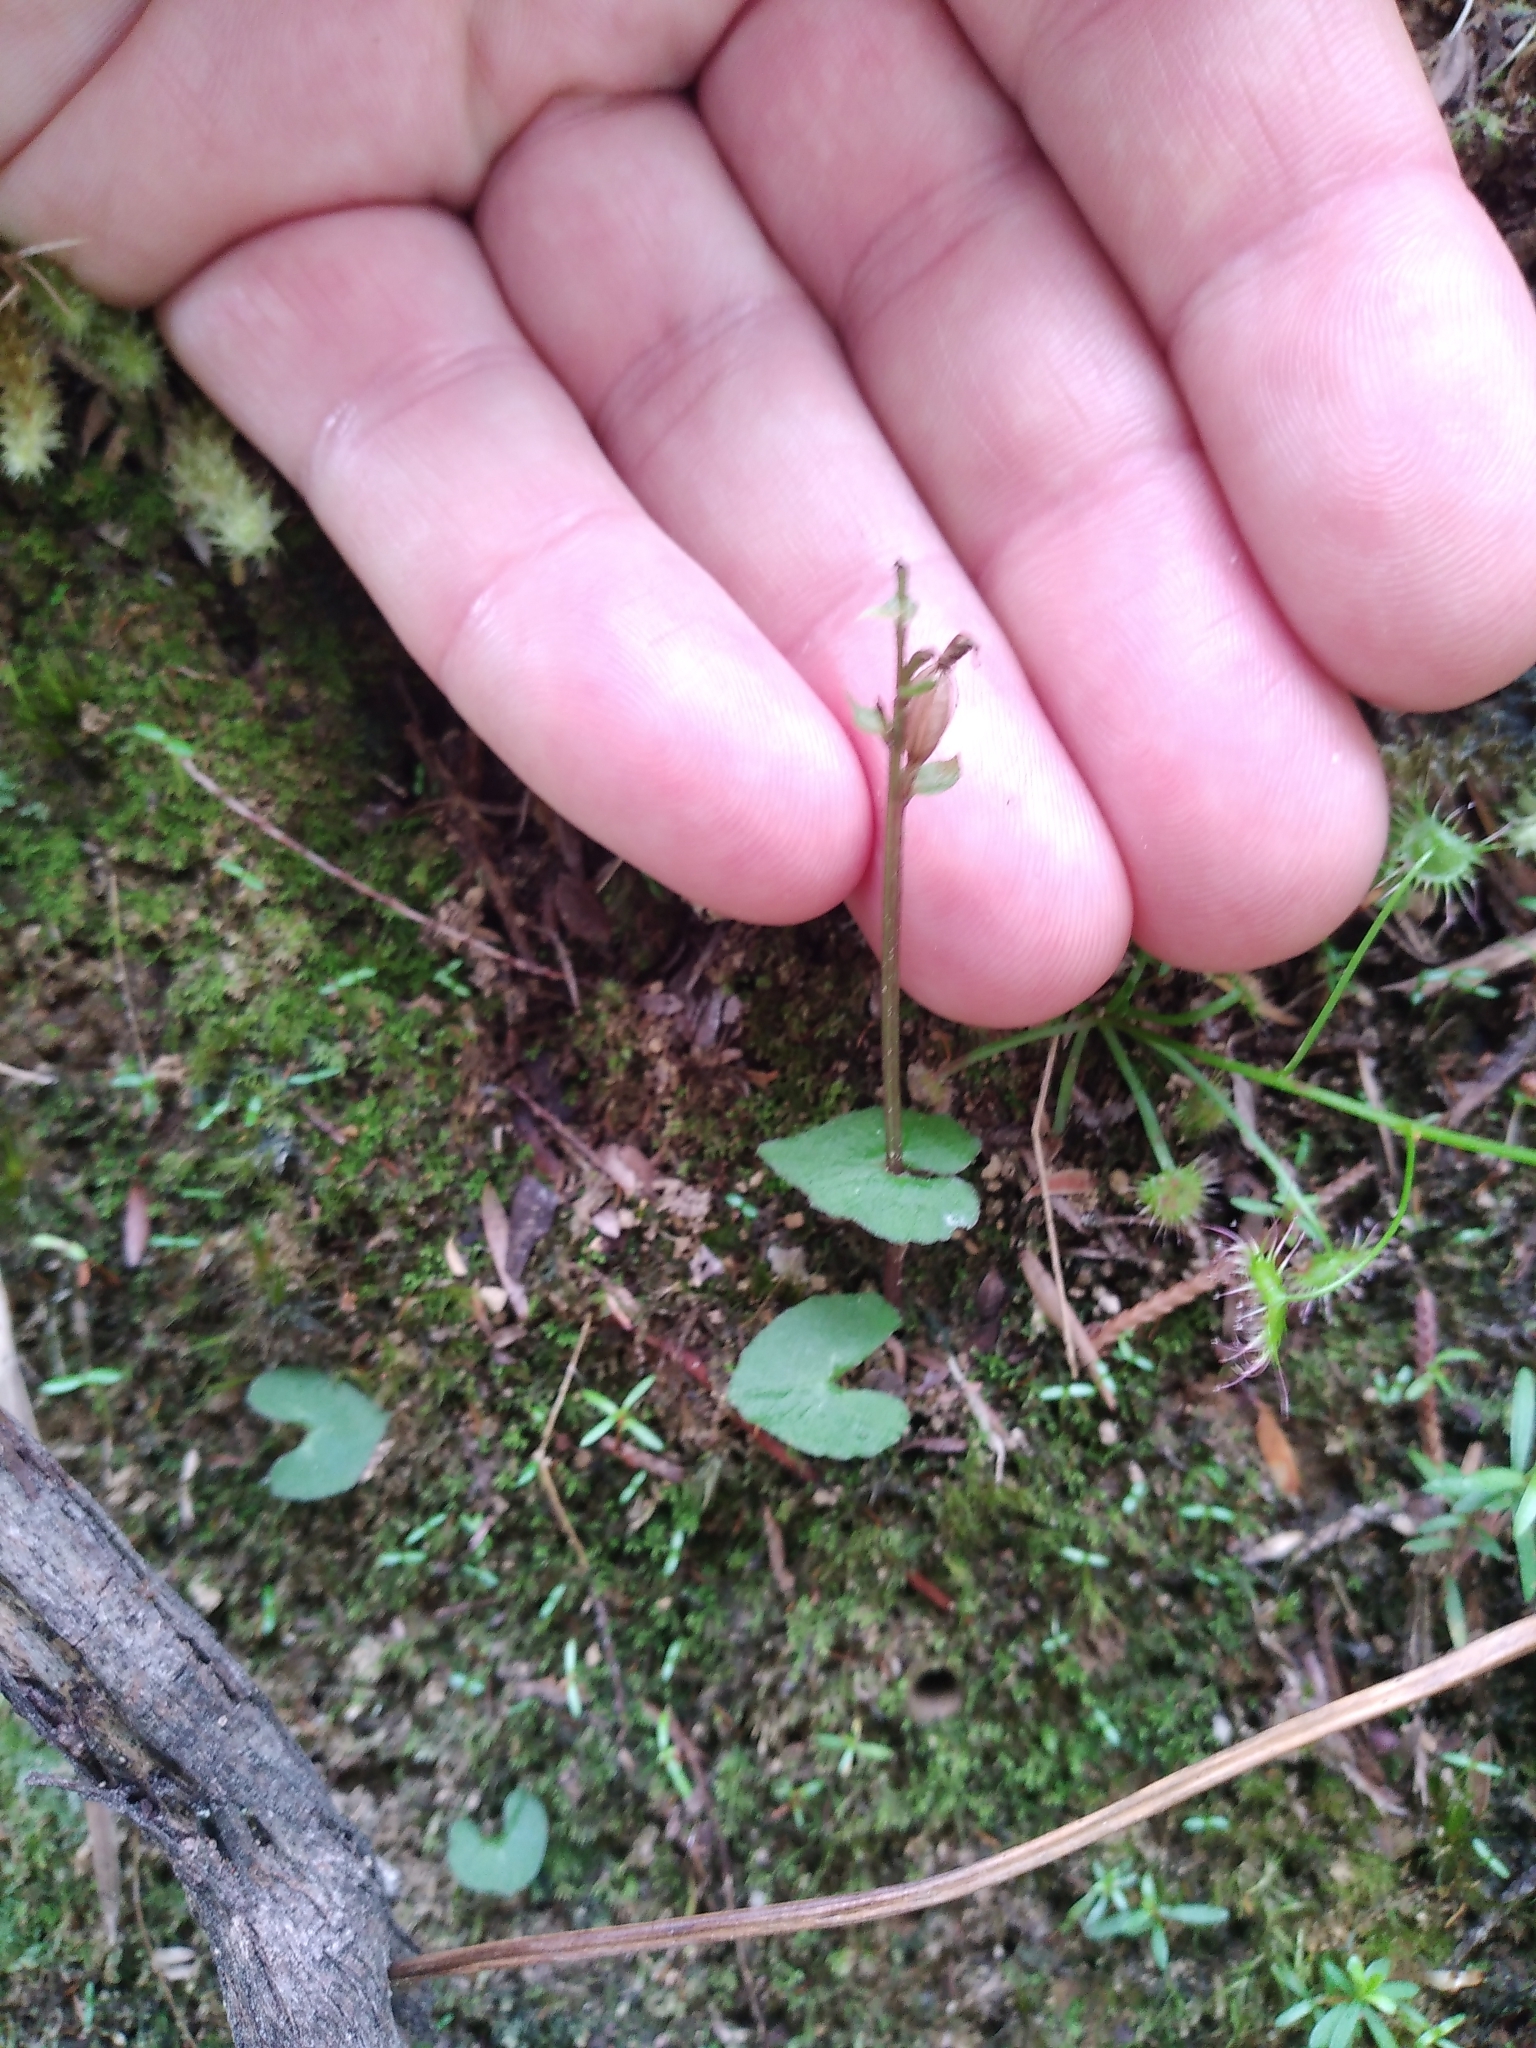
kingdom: Plantae
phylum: Tracheophyta
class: Liliopsida
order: Asparagales
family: Orchidaceae
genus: Acianthus
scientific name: Acianthus sinclairii
